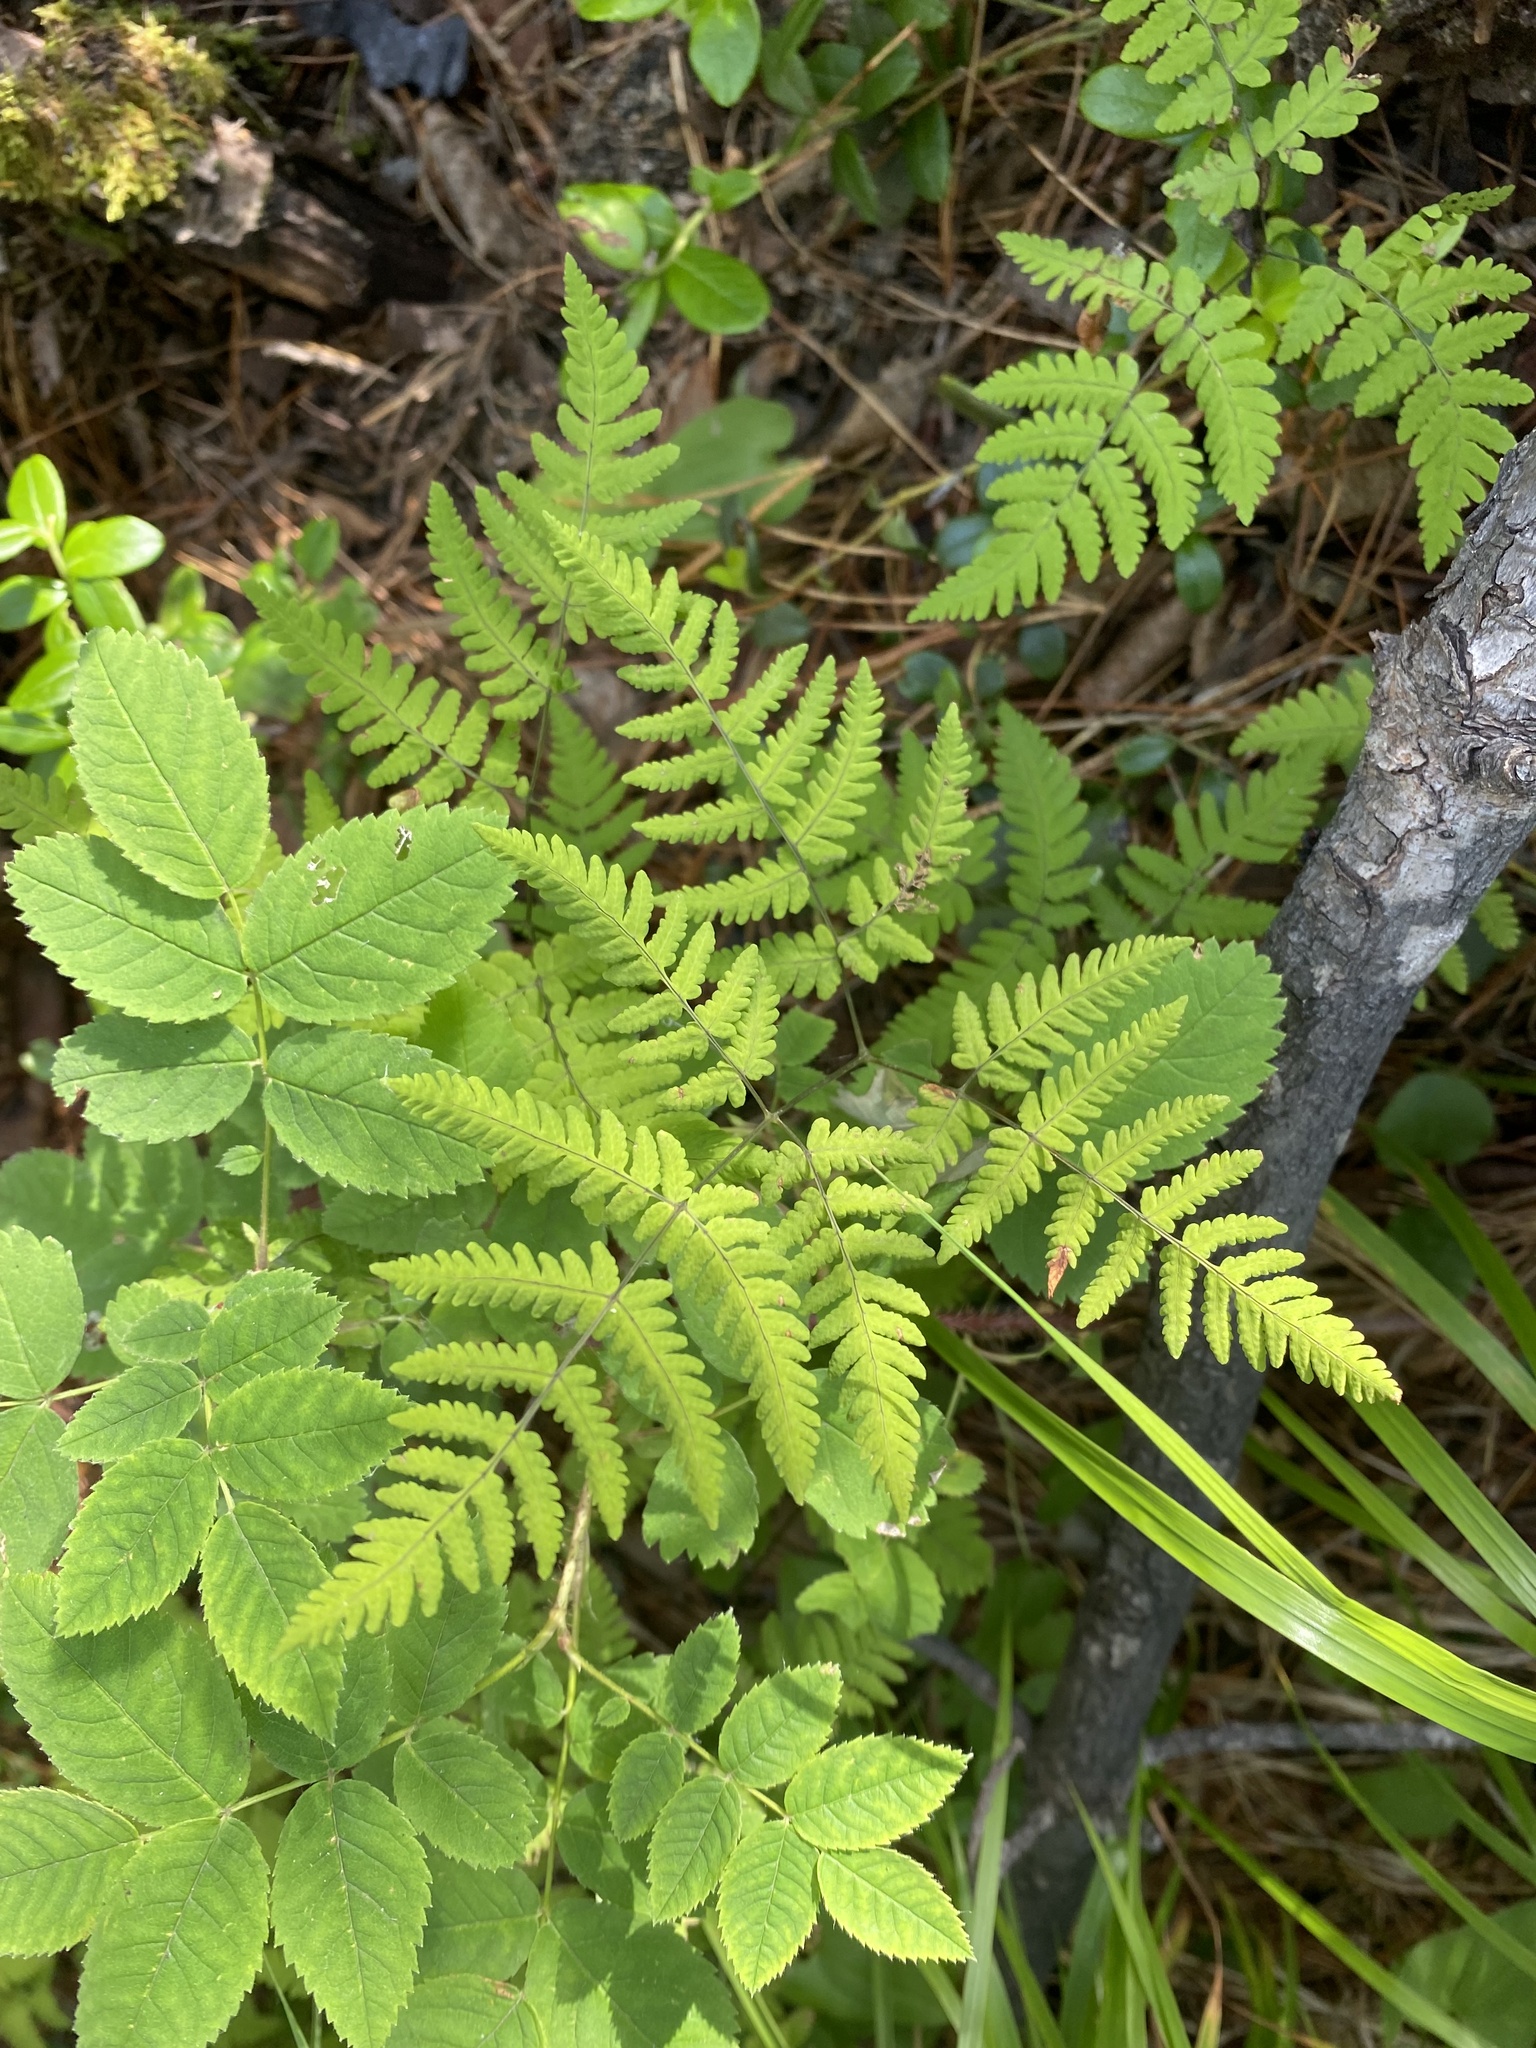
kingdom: Plantae
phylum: Tracheophyta
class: Polypodiopsida
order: Polypodiales
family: Cystopteridaceae
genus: Gymnocarpium
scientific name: Gymnocarpium dryopteris
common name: Oak fern
